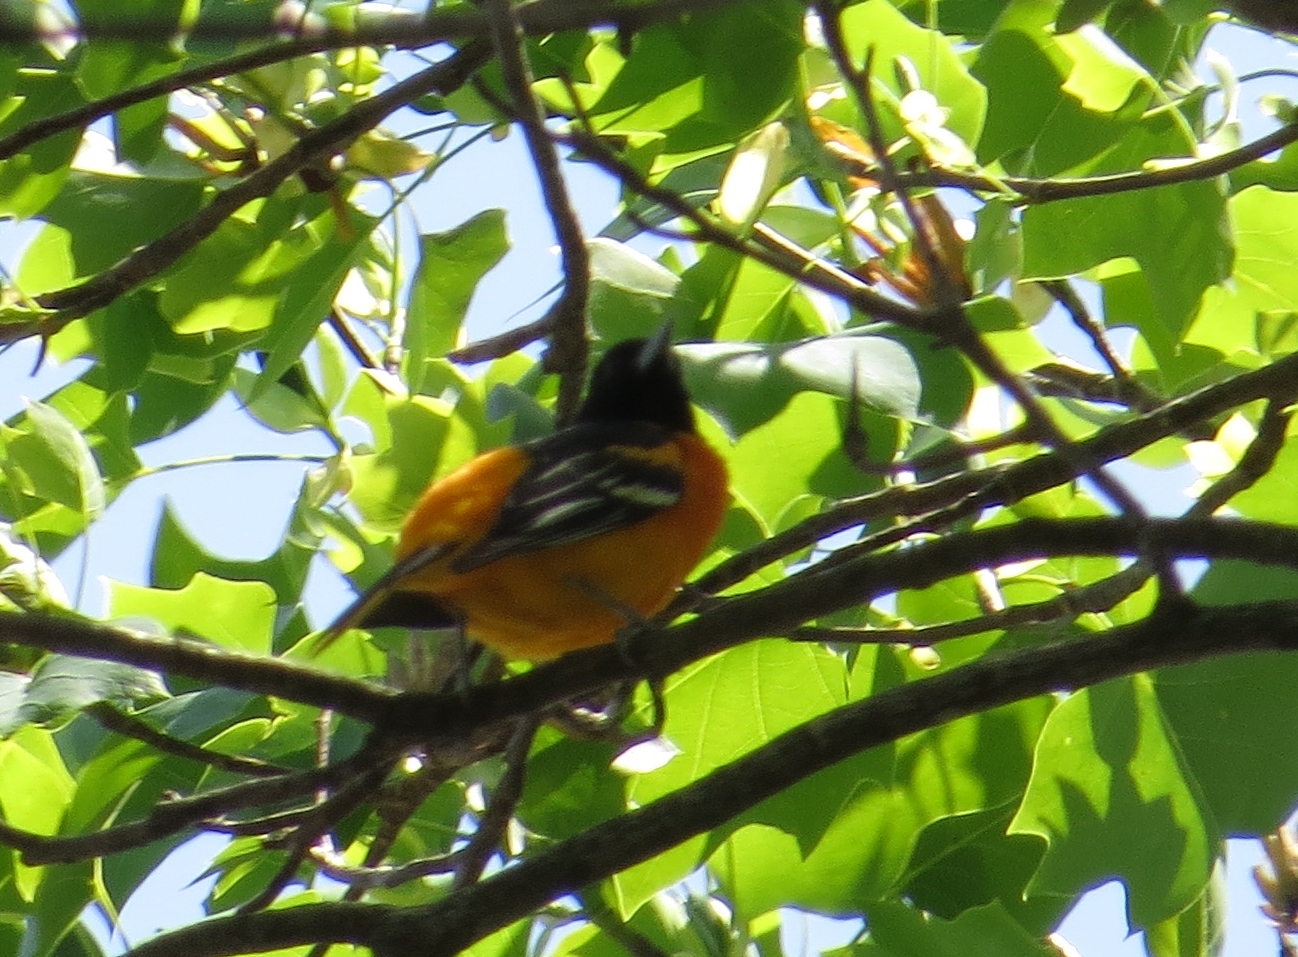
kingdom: Animalia
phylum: Chordata
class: Aves
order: Passeriformes
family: Icteridae
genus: Icterus
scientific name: Icterus galbula
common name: Baltimore oriole
